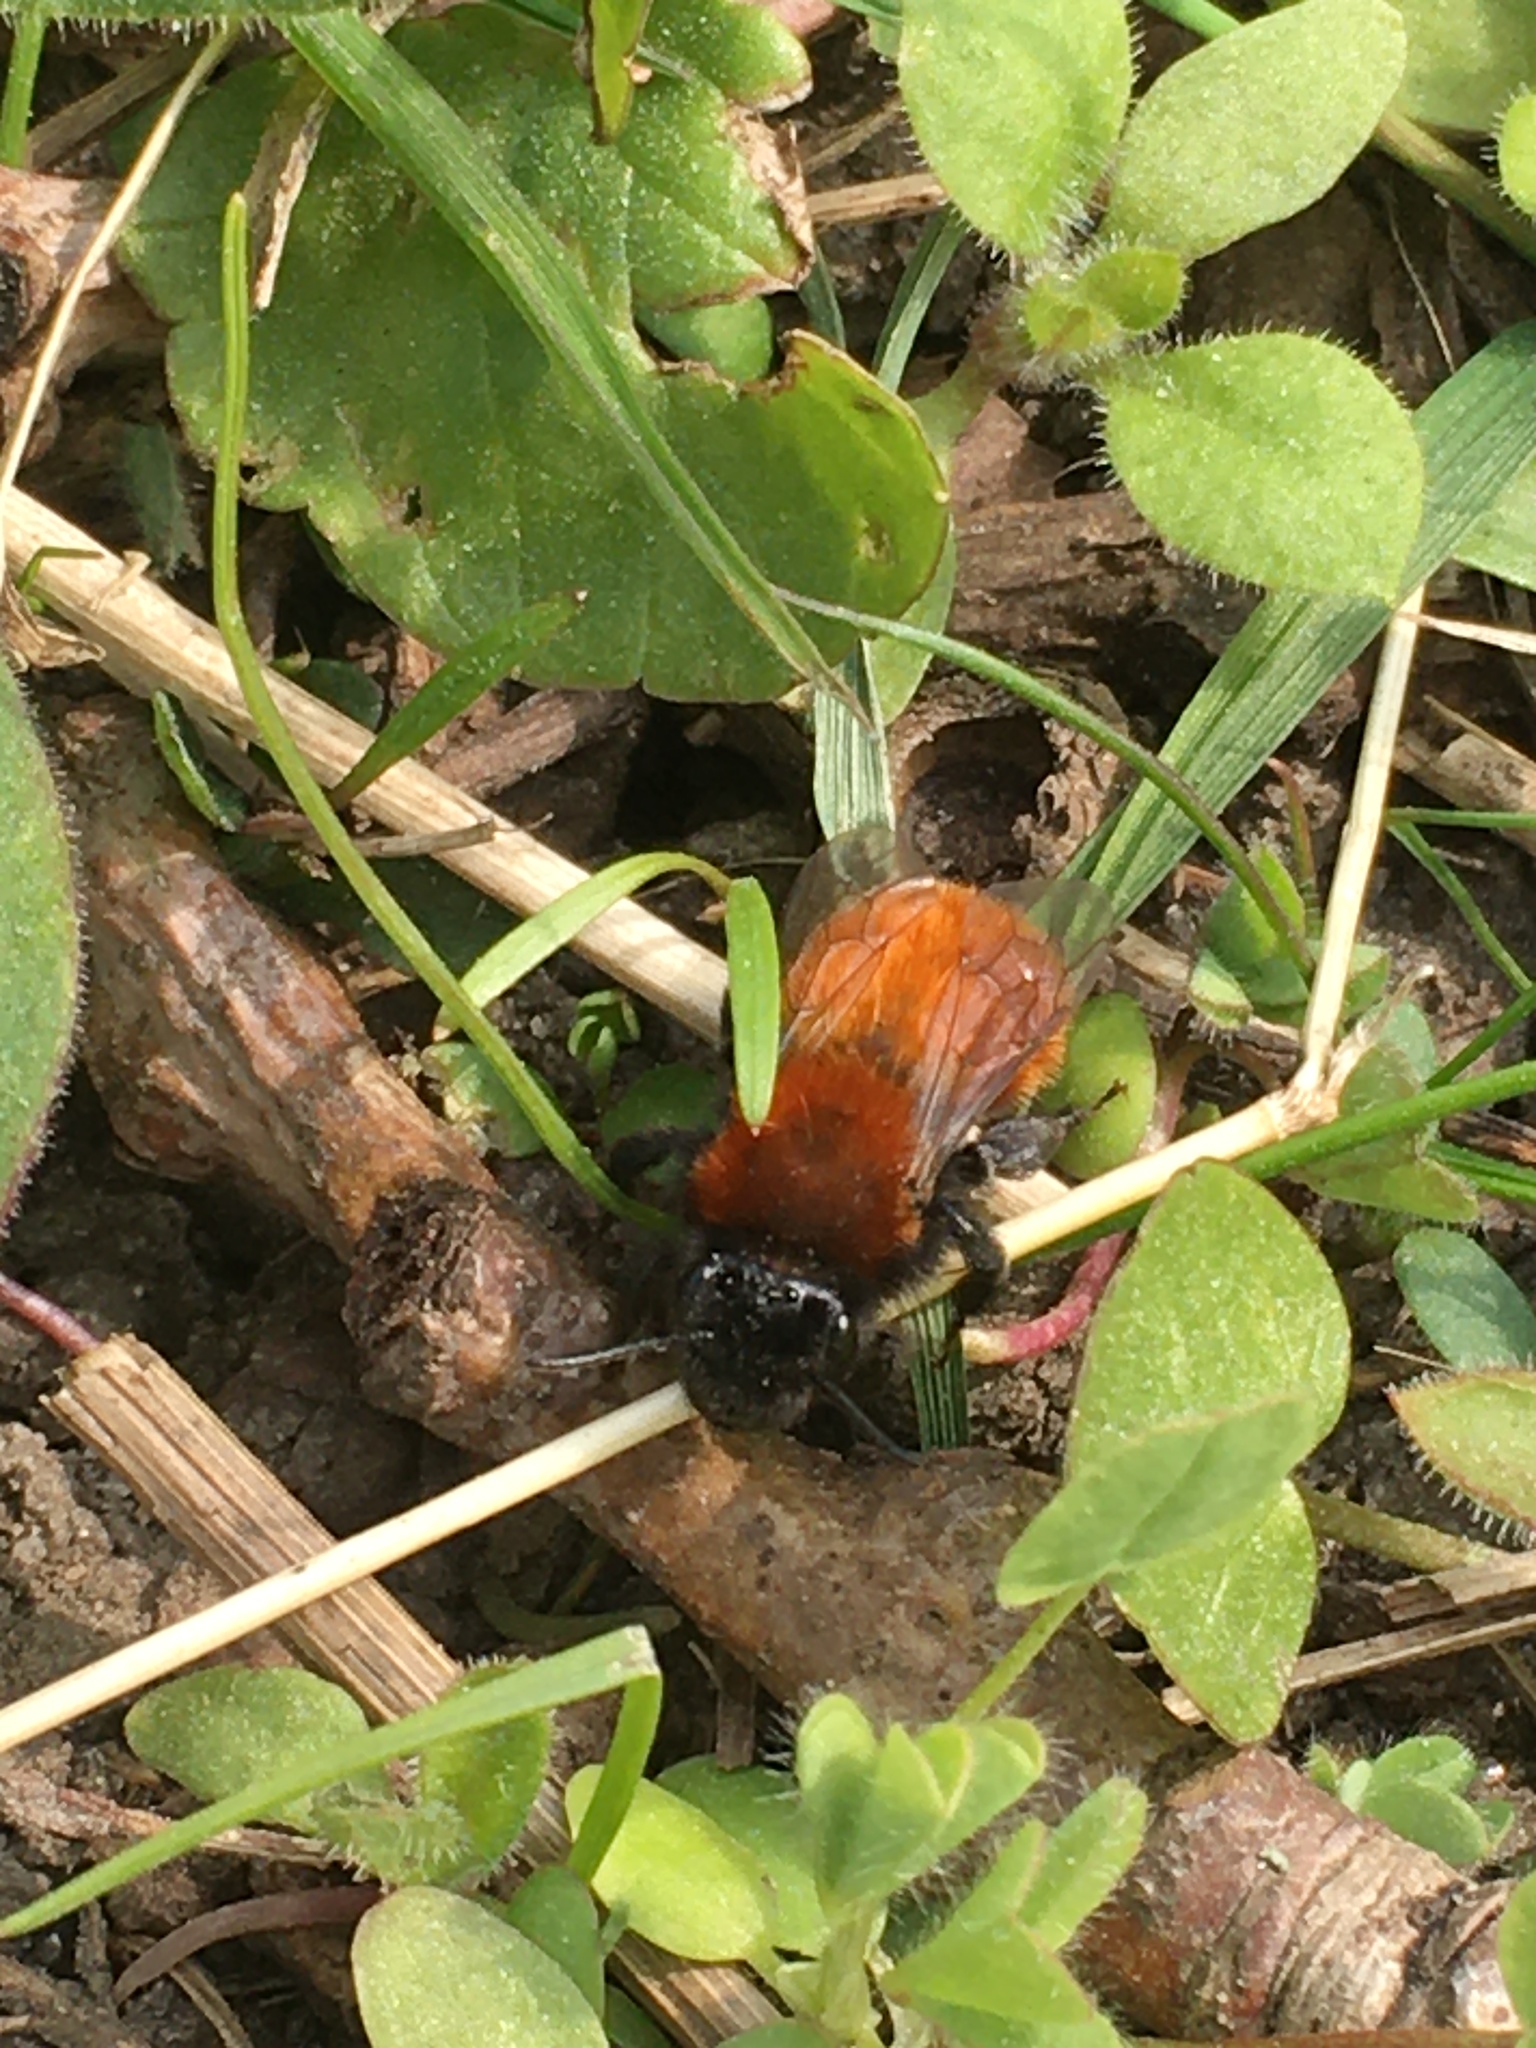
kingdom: Animalia
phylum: Arthropoda
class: Insecta
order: Hymenoptera
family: Andrenidae
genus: Andrena
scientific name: Andrena fulva
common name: Tawny mining bee
